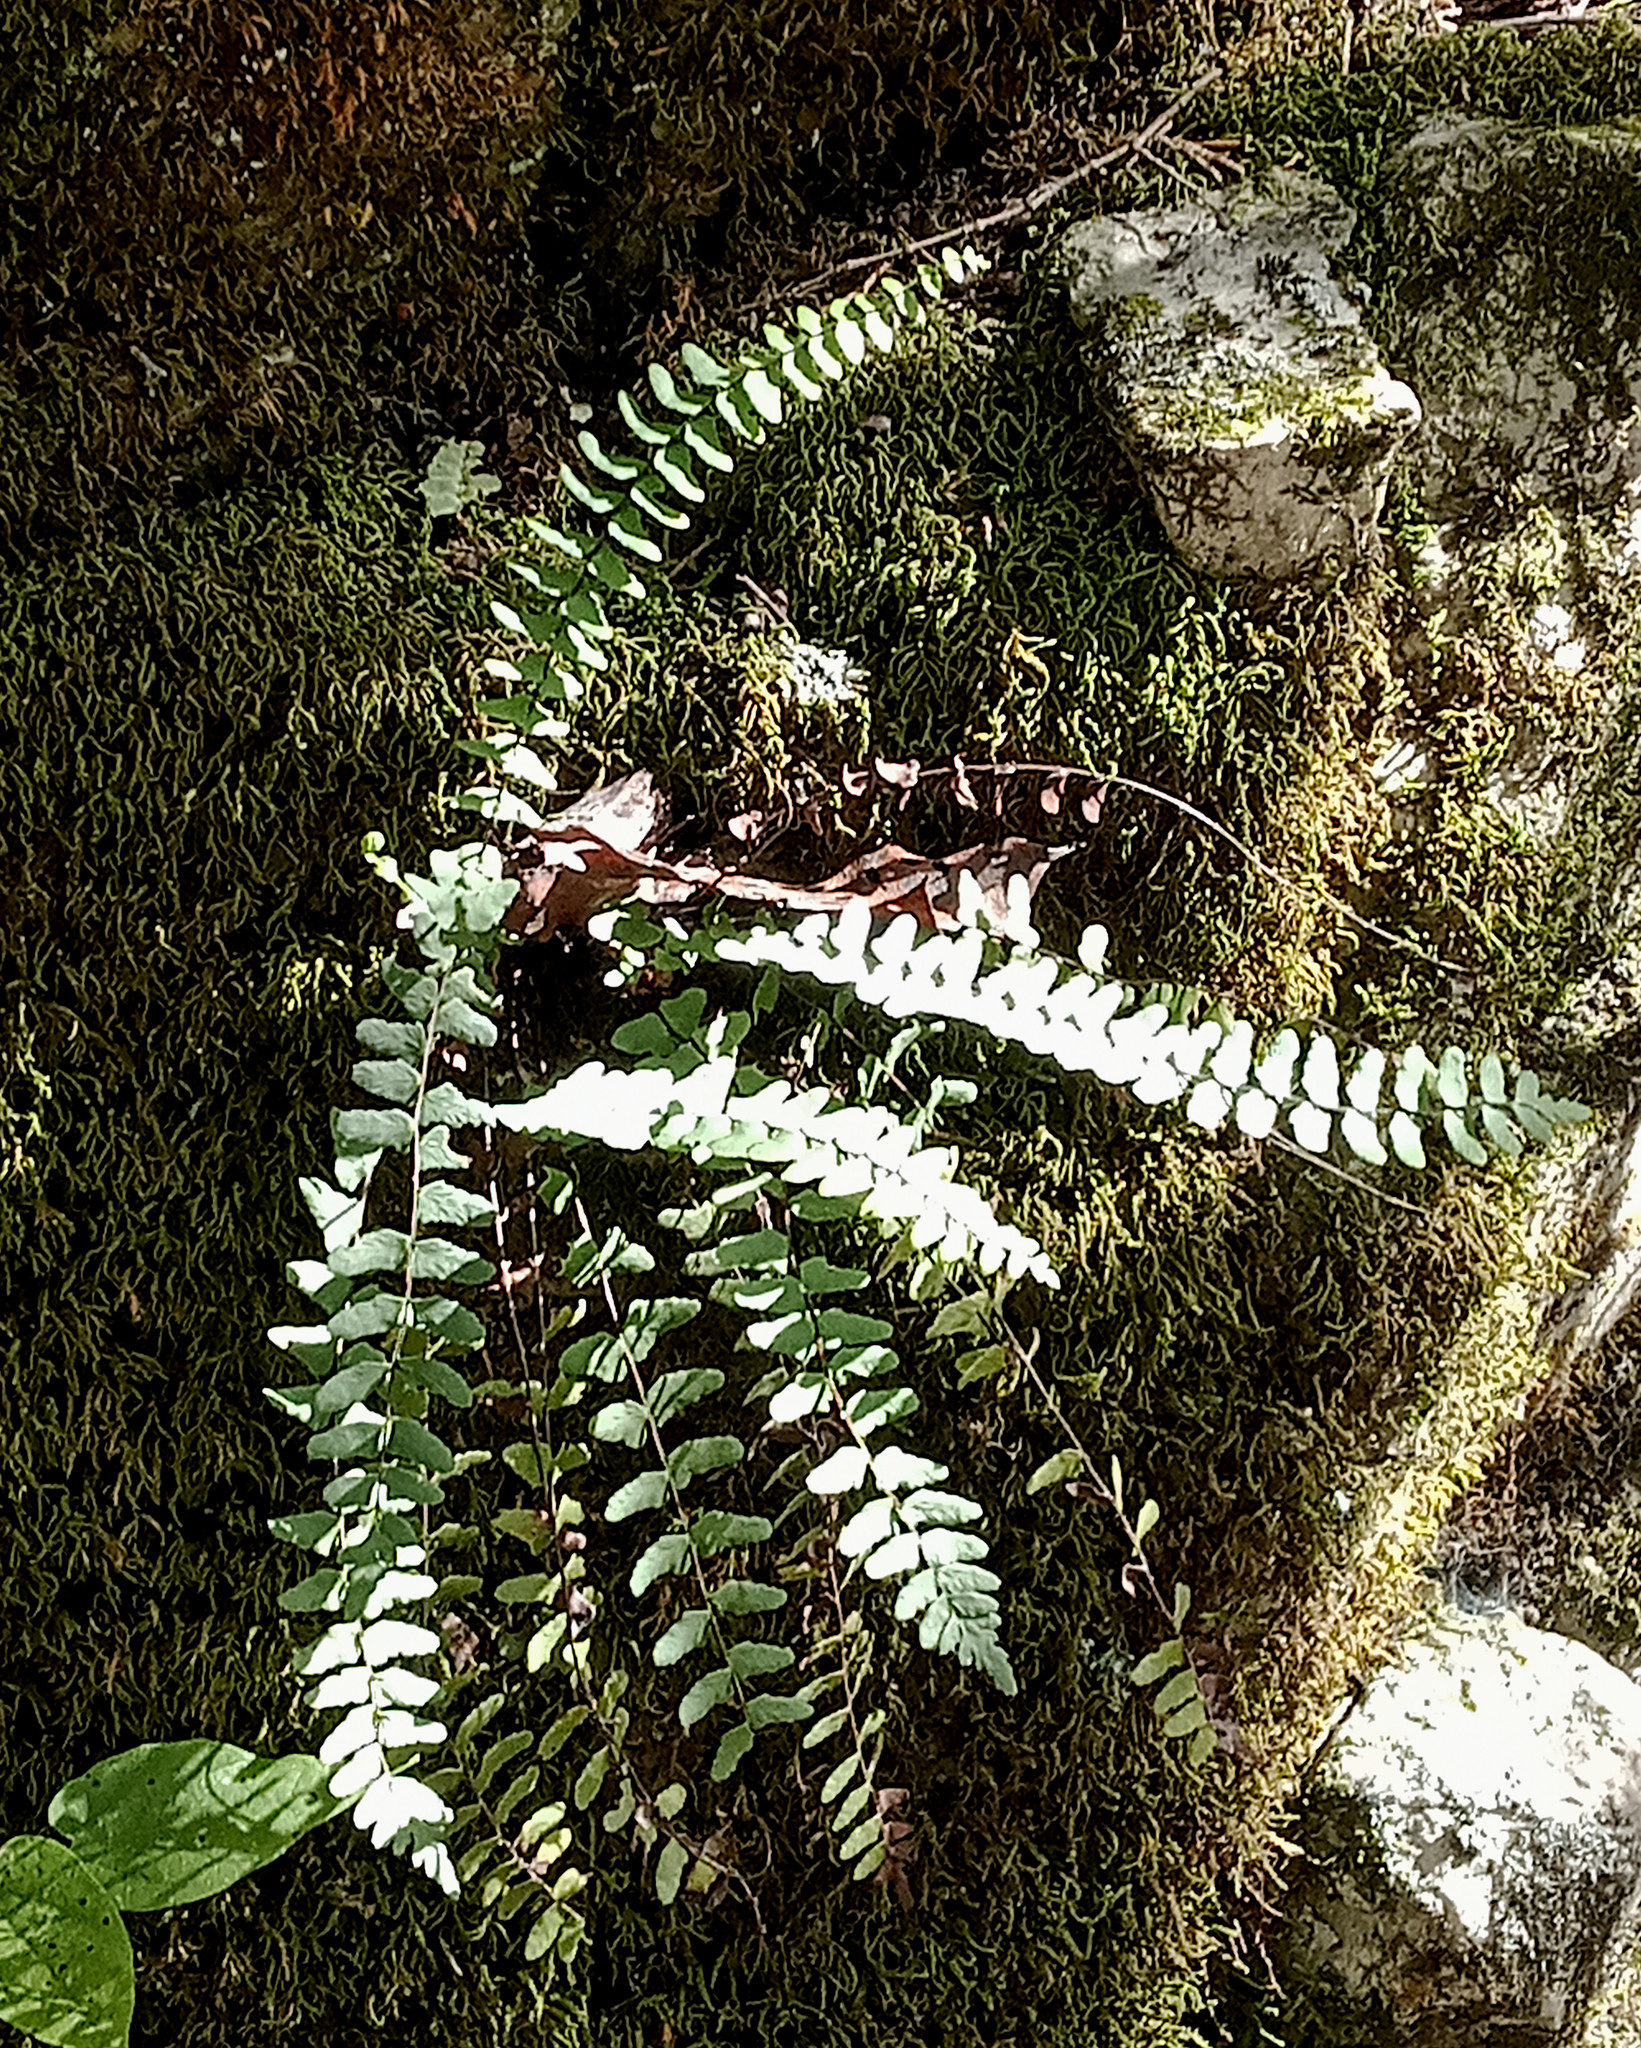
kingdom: Plantae
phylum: Tracheophyta
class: Polypodiopsida
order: Polypodiales
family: Aspleniaceae
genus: Asplenium
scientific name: Asplenium resiliens
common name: Blackstem spleenwort
